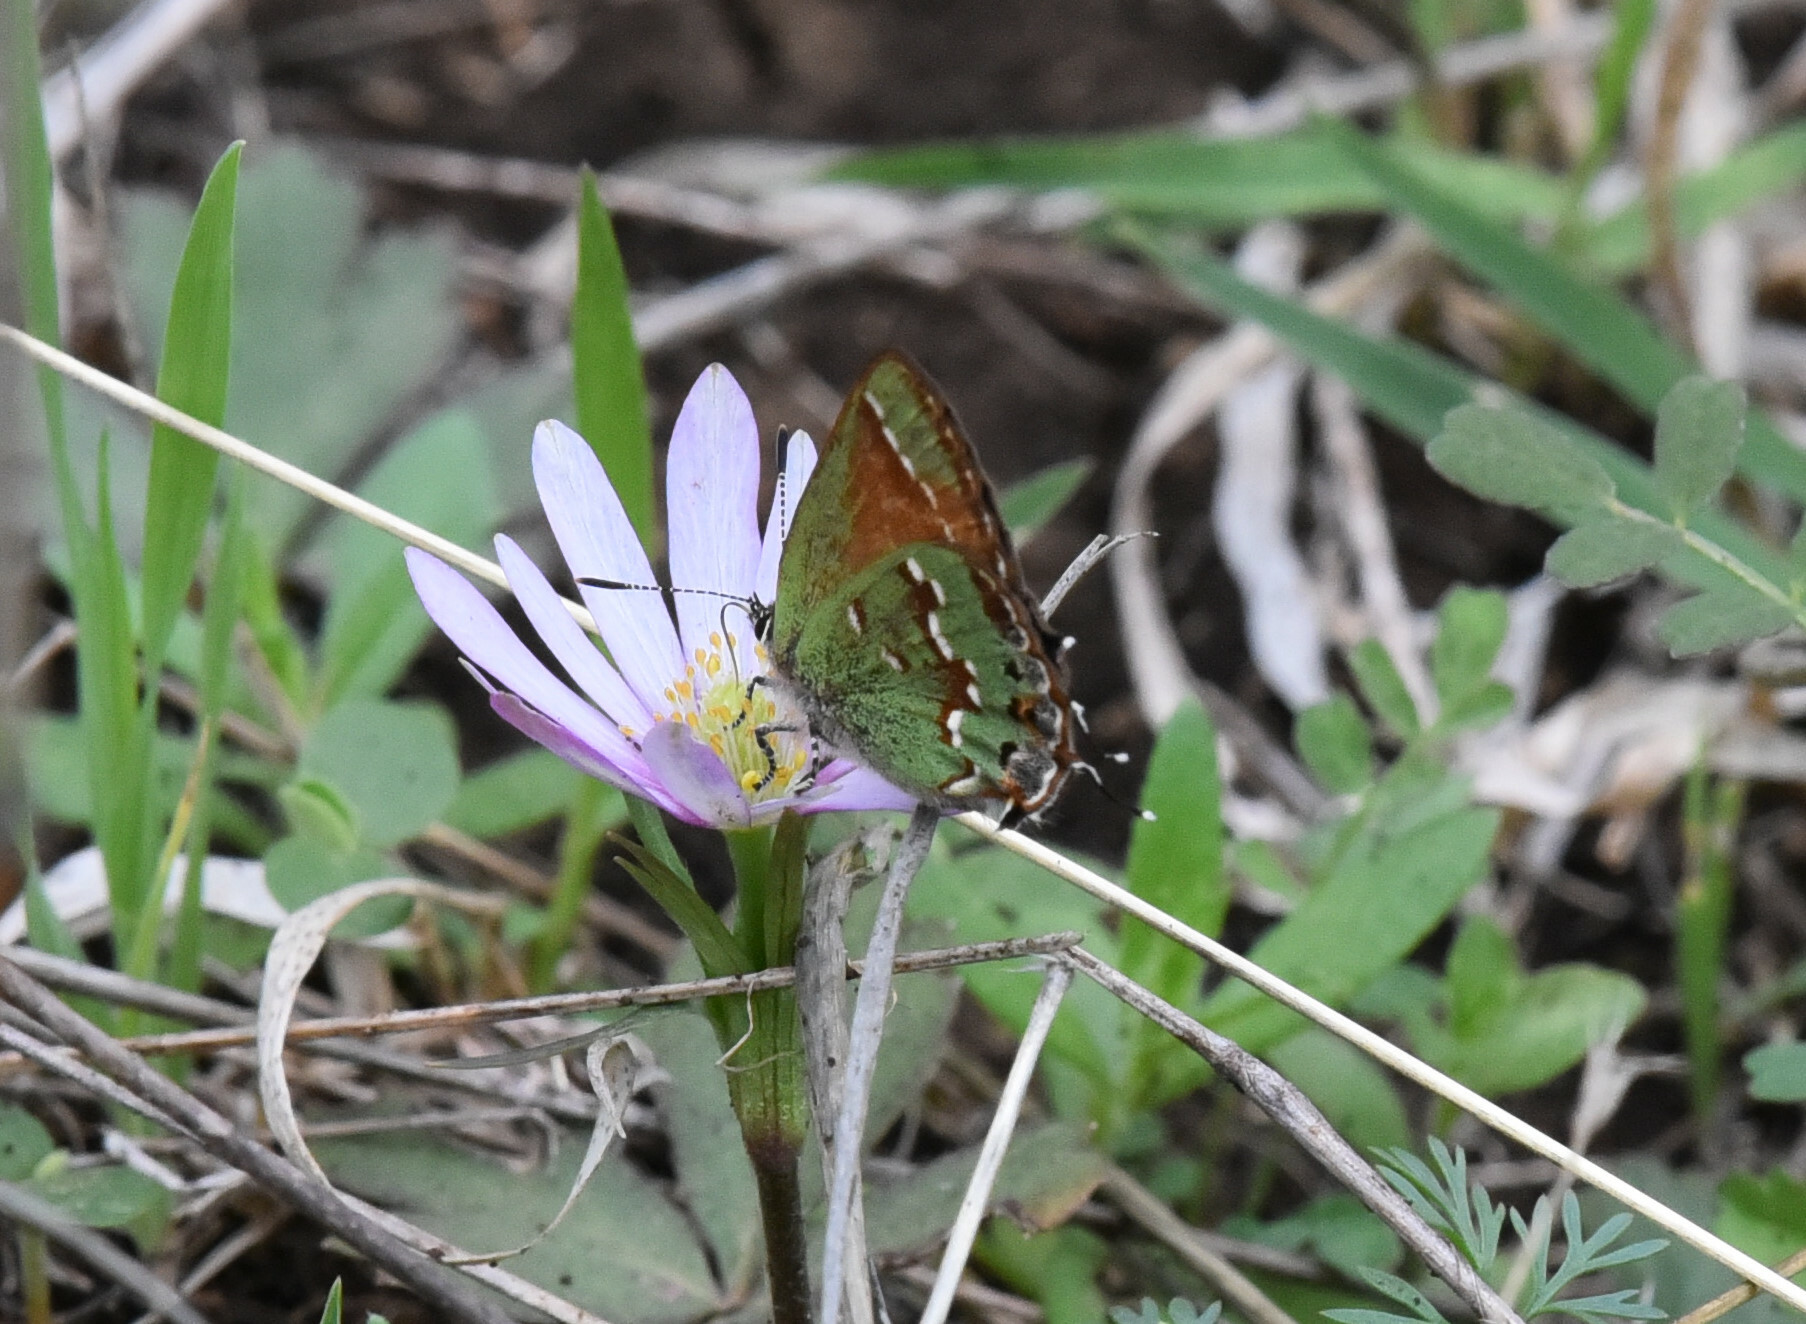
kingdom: Animalia
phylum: Arthropoda
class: Insecta
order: Lepidoptera
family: Lycaenidae
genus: Mitoura
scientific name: Mitoura gryneus
